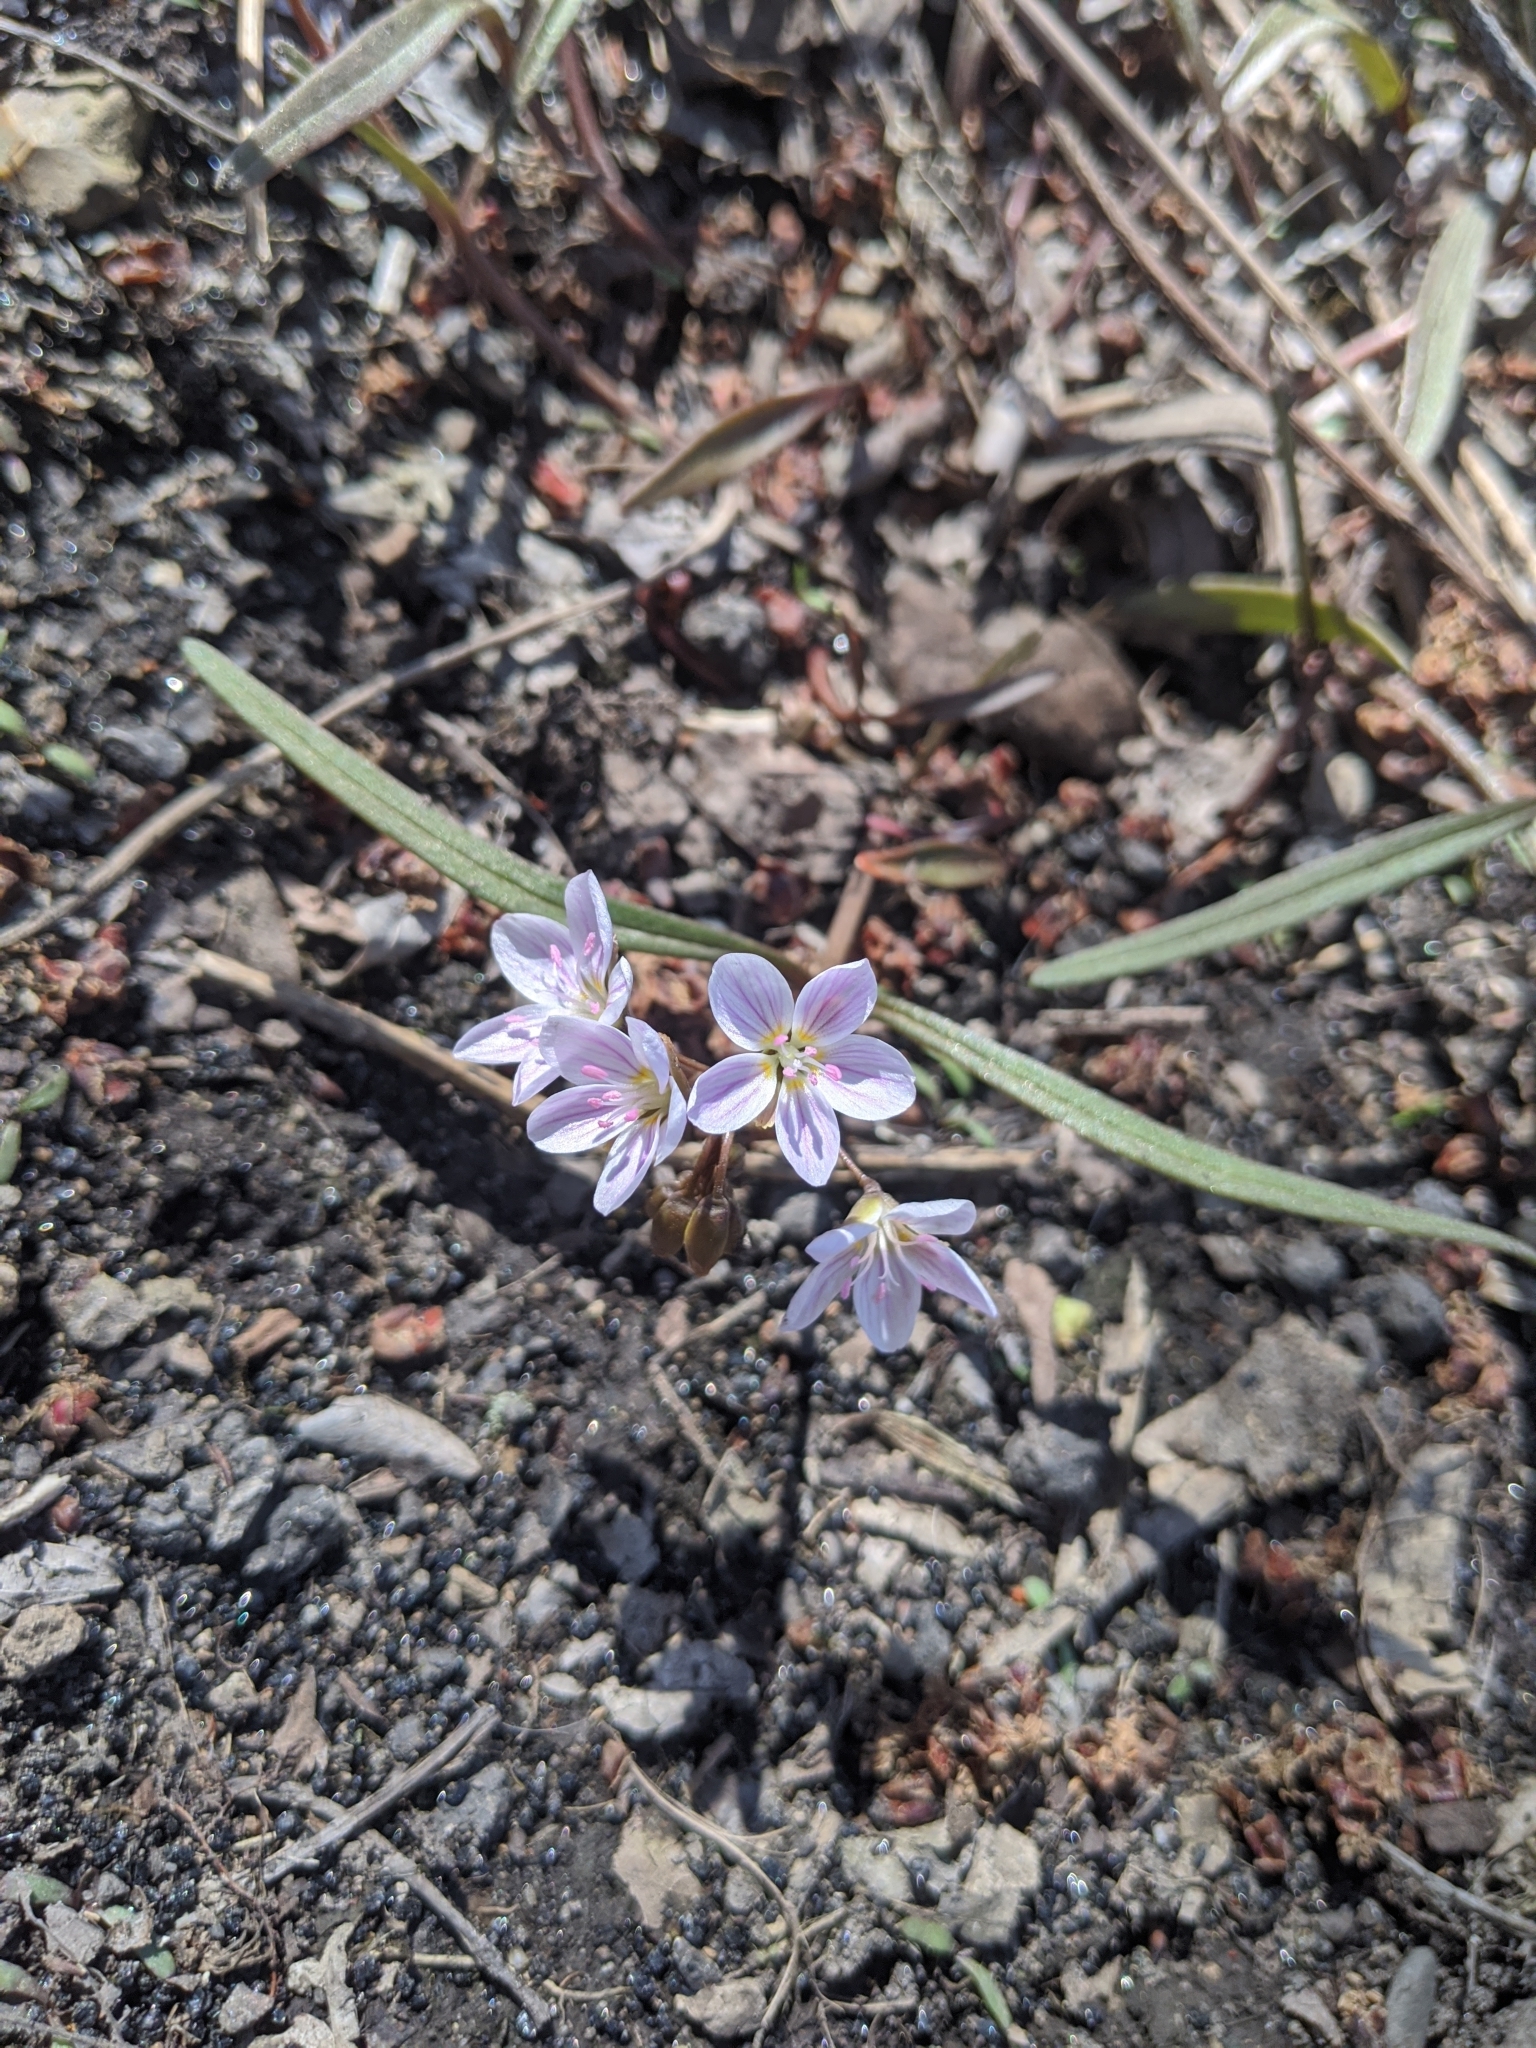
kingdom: Plantae
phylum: Tracheophyta
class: Magnoliopsida
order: Caryophyllales
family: Montiaceae
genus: Claytonia
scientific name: Claytonia virginica
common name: Virginia springbeauty
